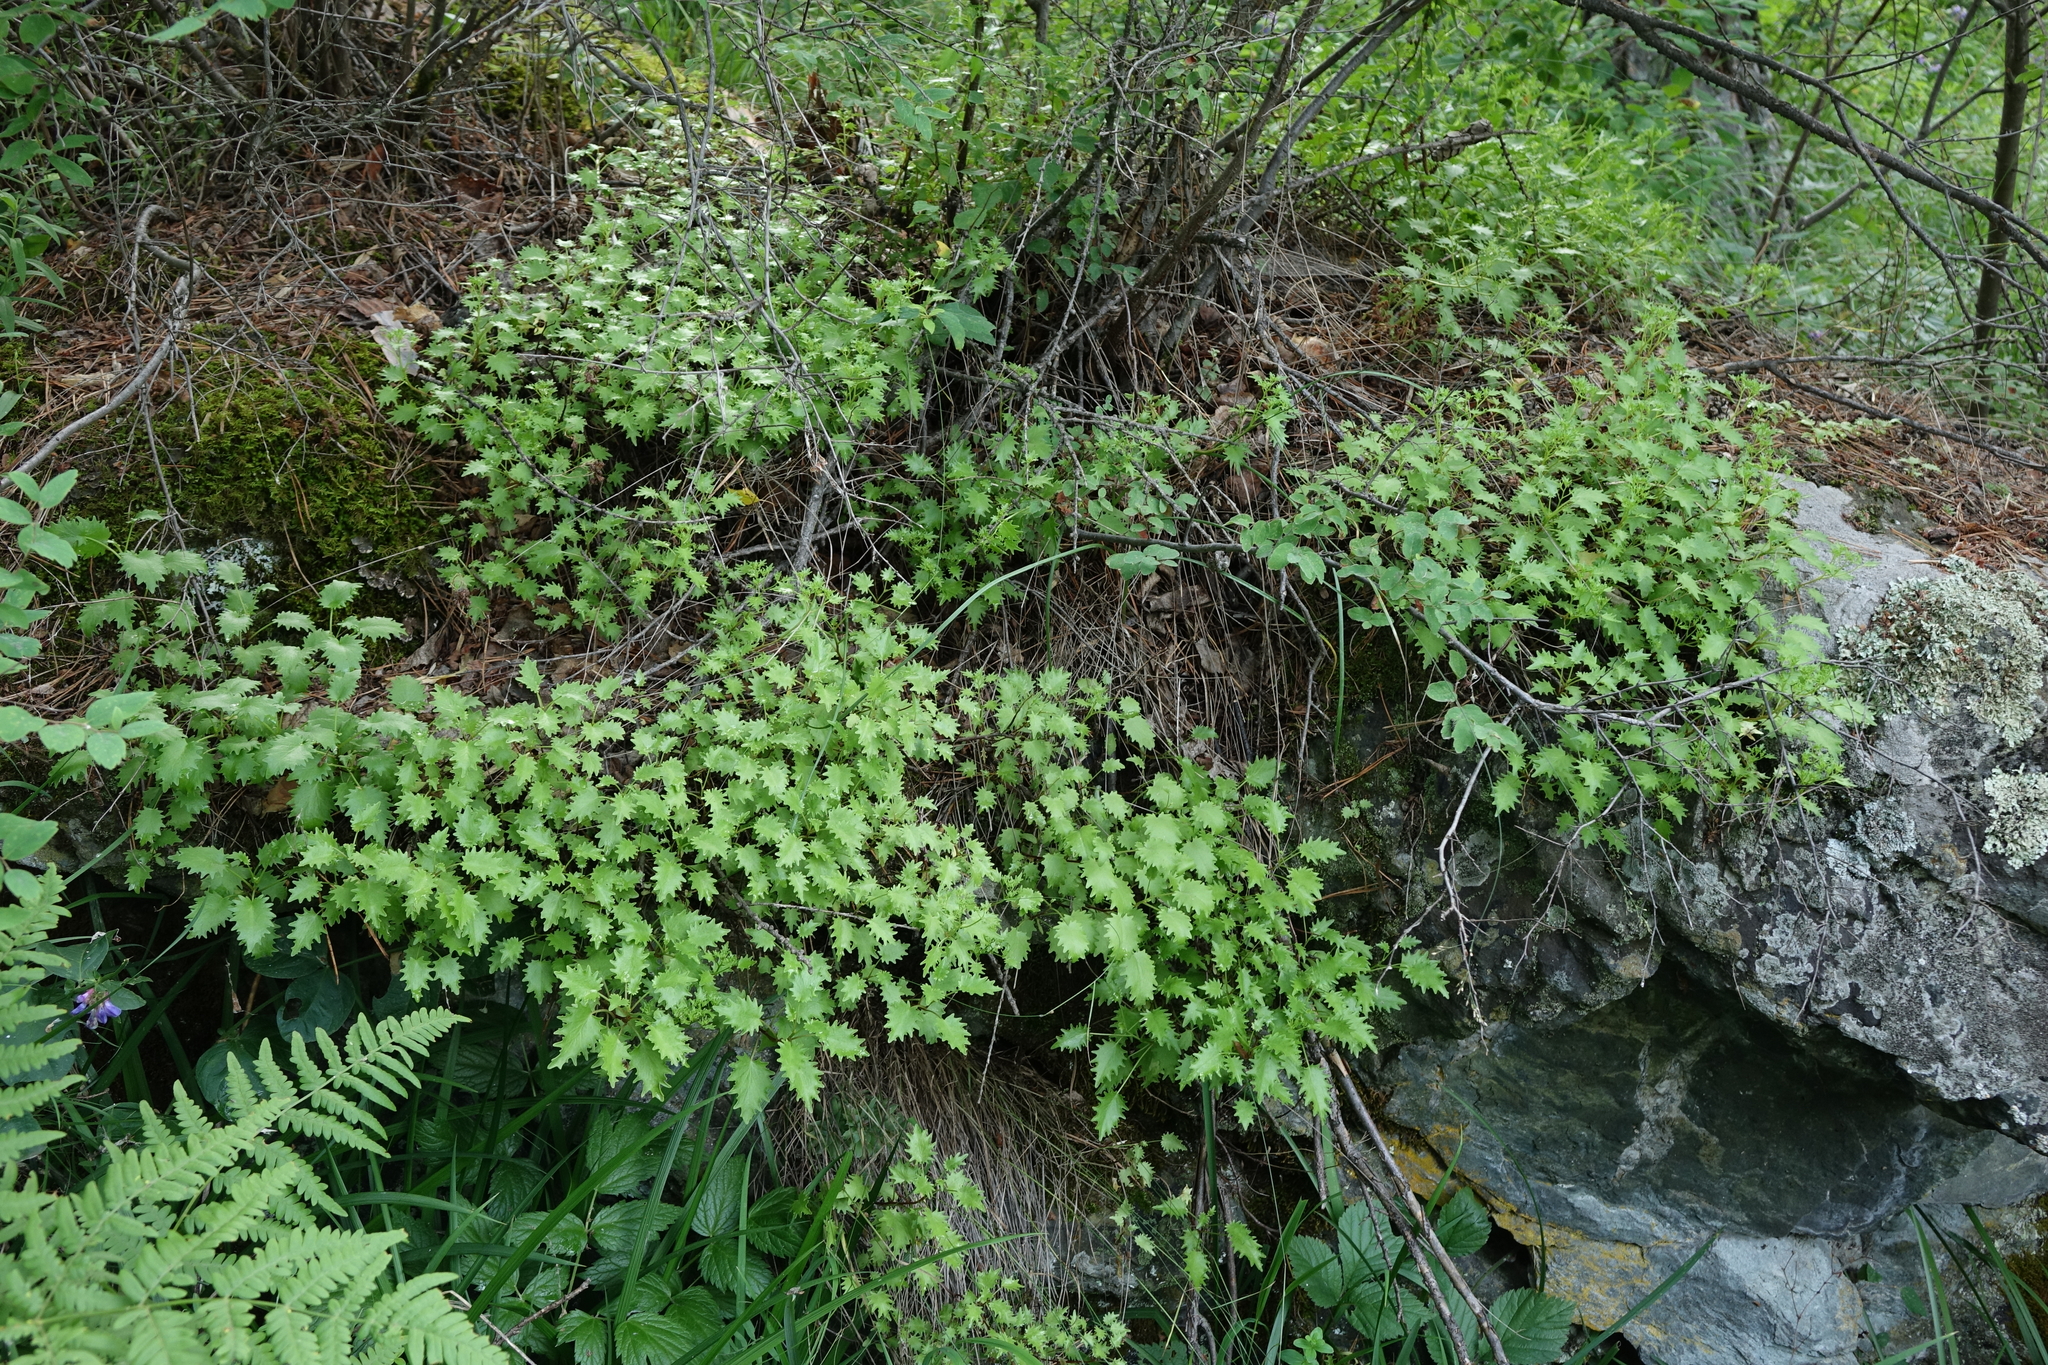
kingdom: Plantae
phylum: Tracheophyta
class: Magnoliopsida
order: Saxifragales
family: Crassulaceae
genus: Hylotelephium
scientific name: Hylotelephium populifolium
